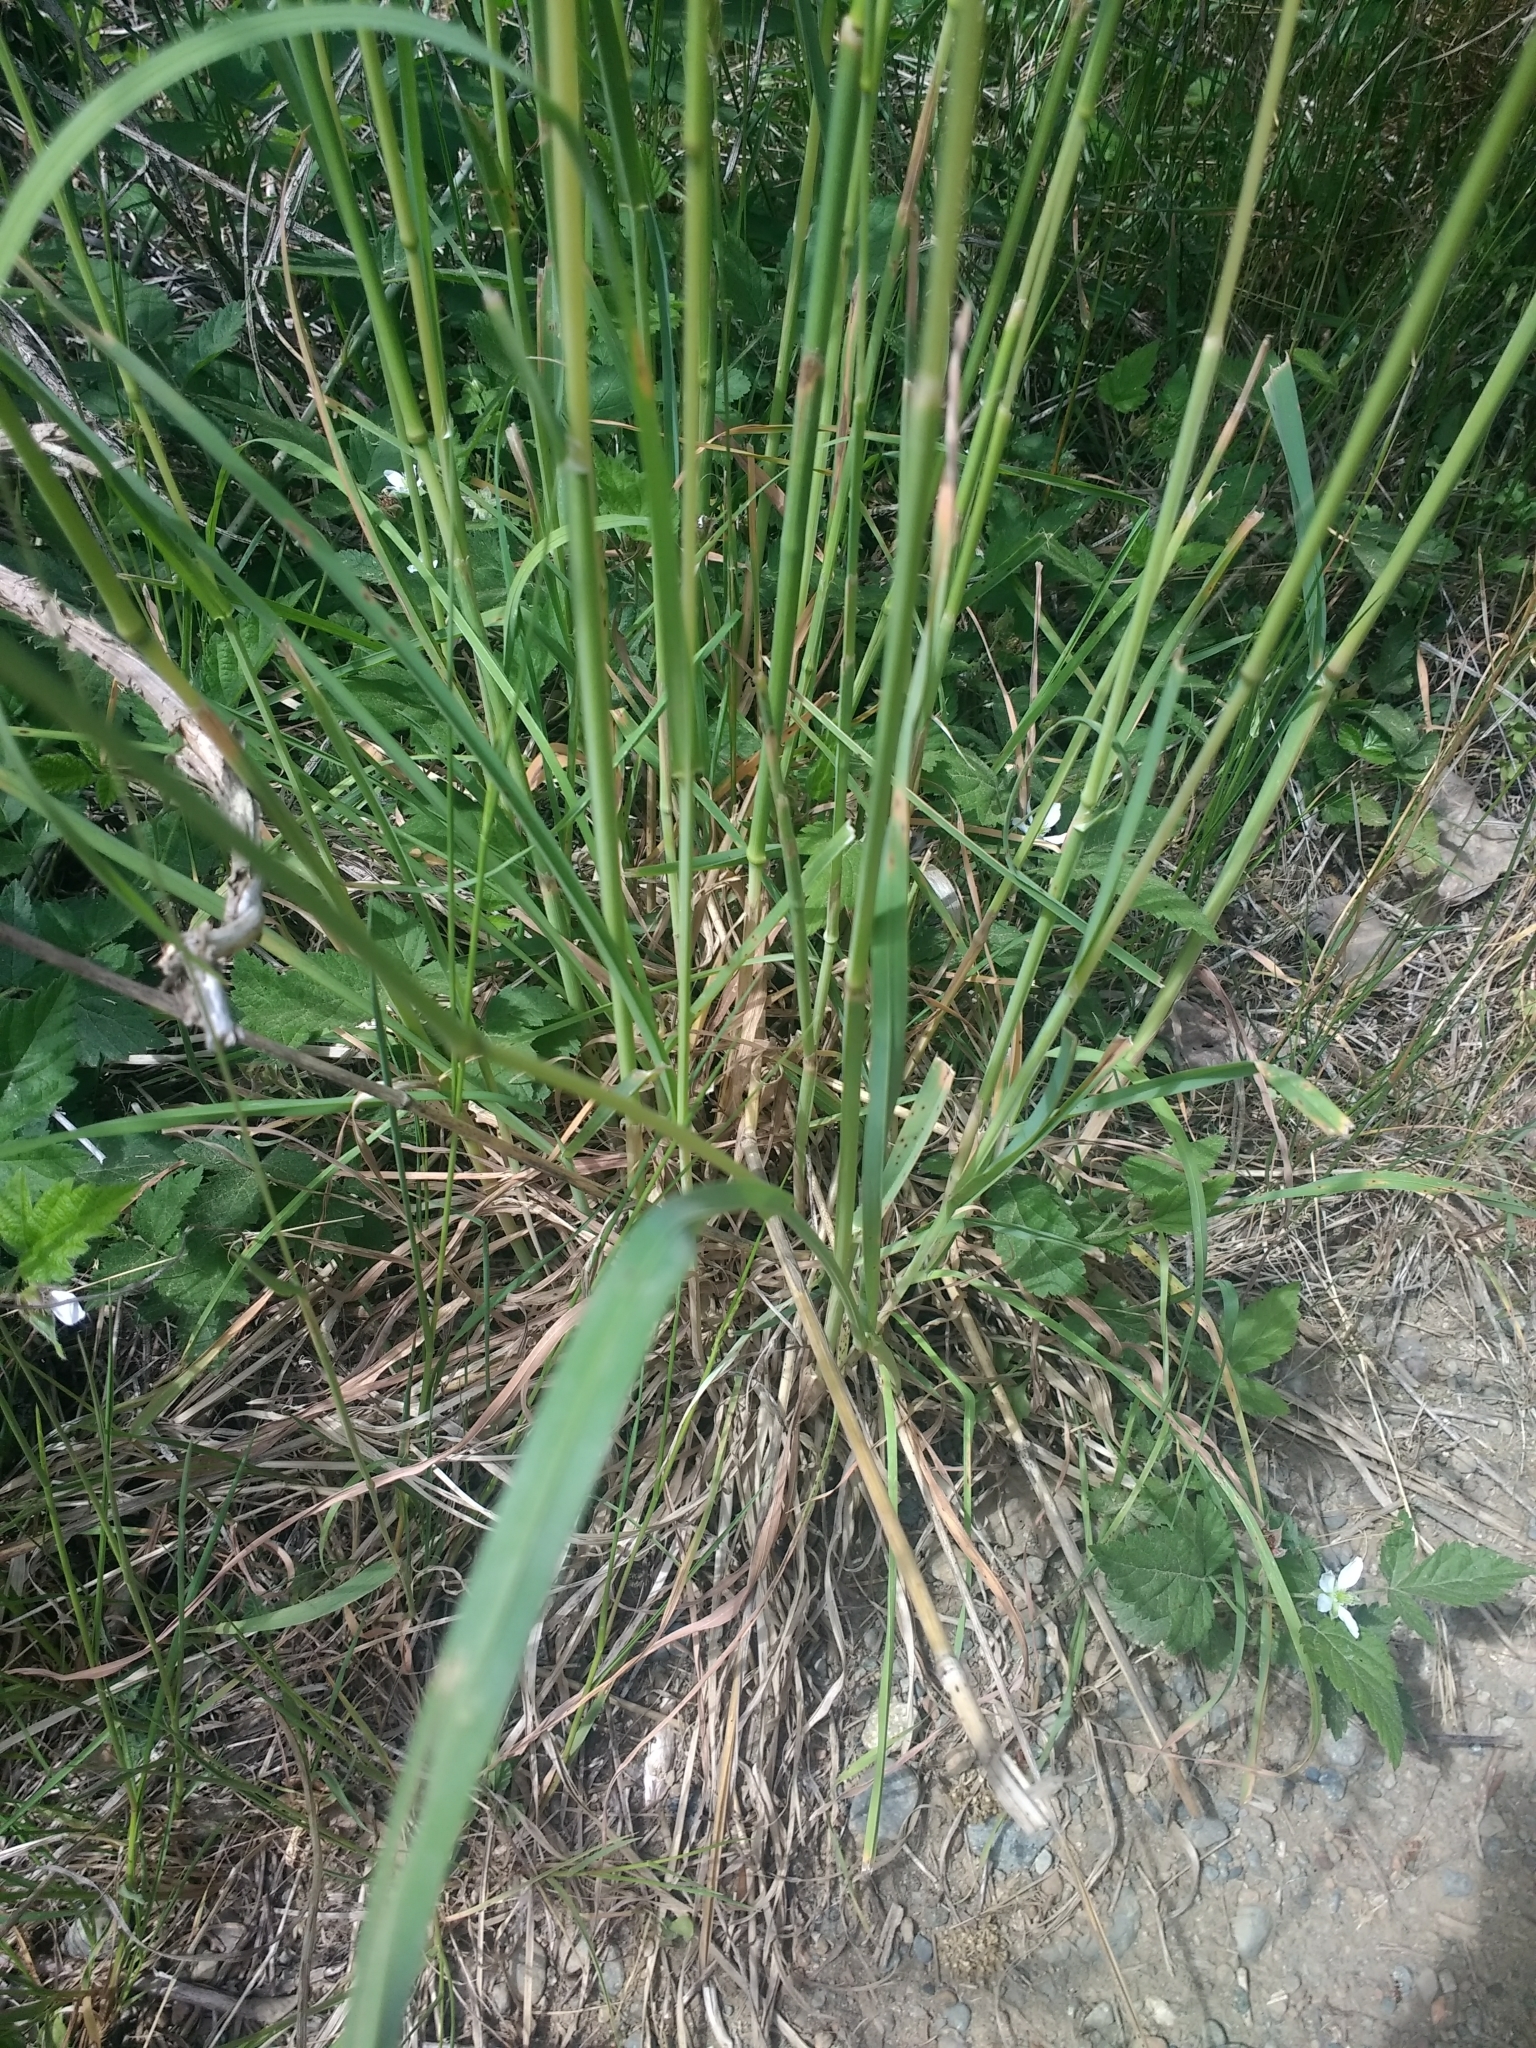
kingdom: Plantae
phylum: Tracheophyta
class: Liliopsida
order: Poales
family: Poaceae
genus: Dactylis
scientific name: Dactylis glomerata
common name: Orchardgrass
